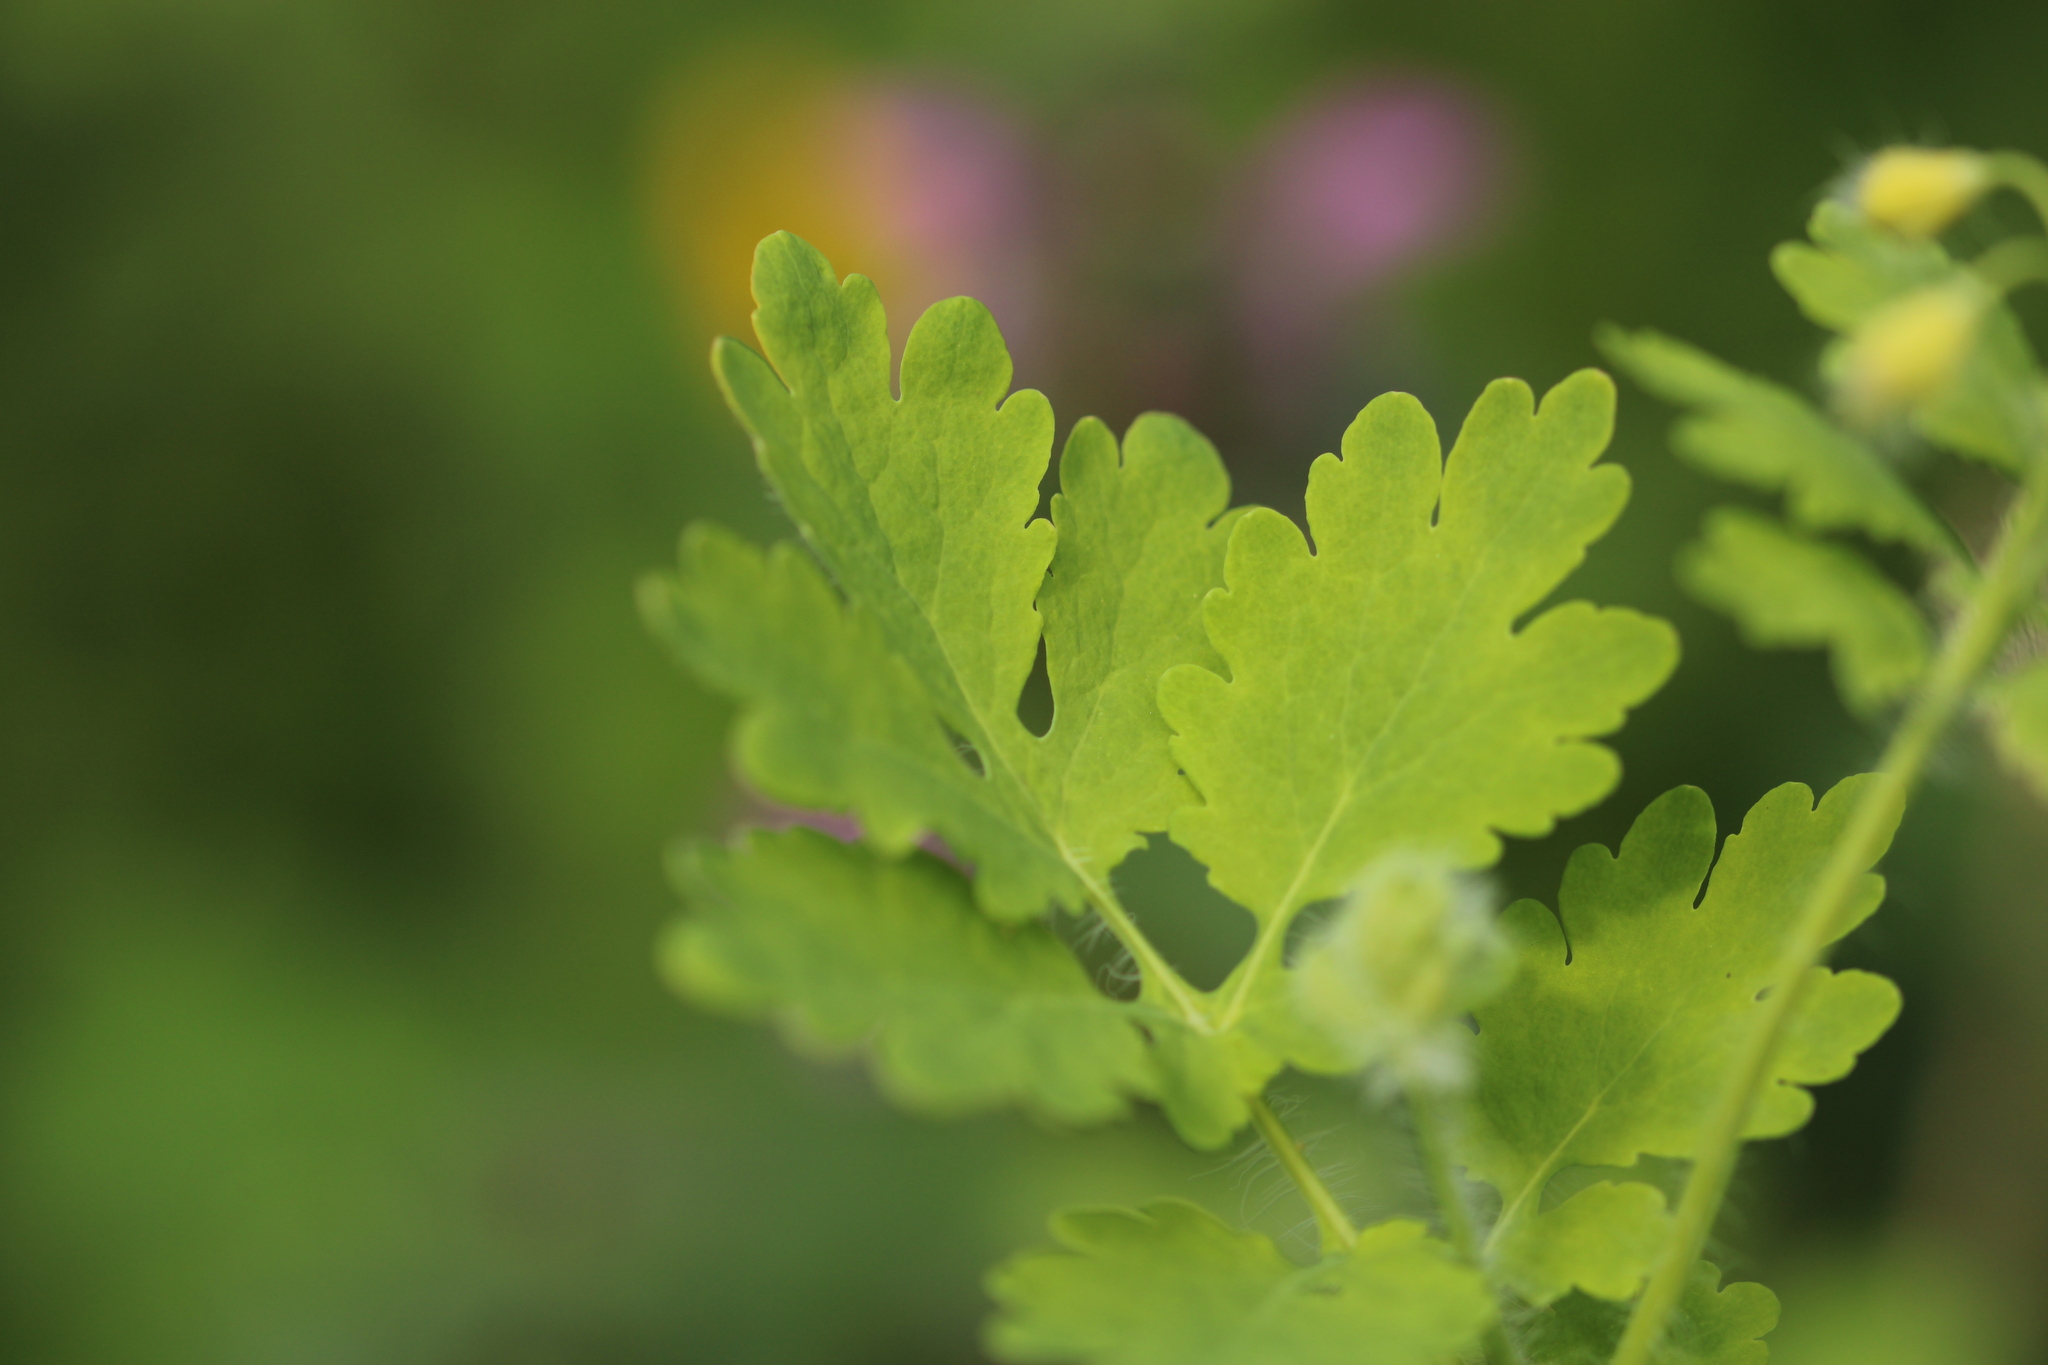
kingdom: Plantae
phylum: Tracheophyta
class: Magnoliopsida
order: Ranunculales
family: Papaveraceae
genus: Chelidonium
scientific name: Chelidonium majus
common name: Greater celandine
